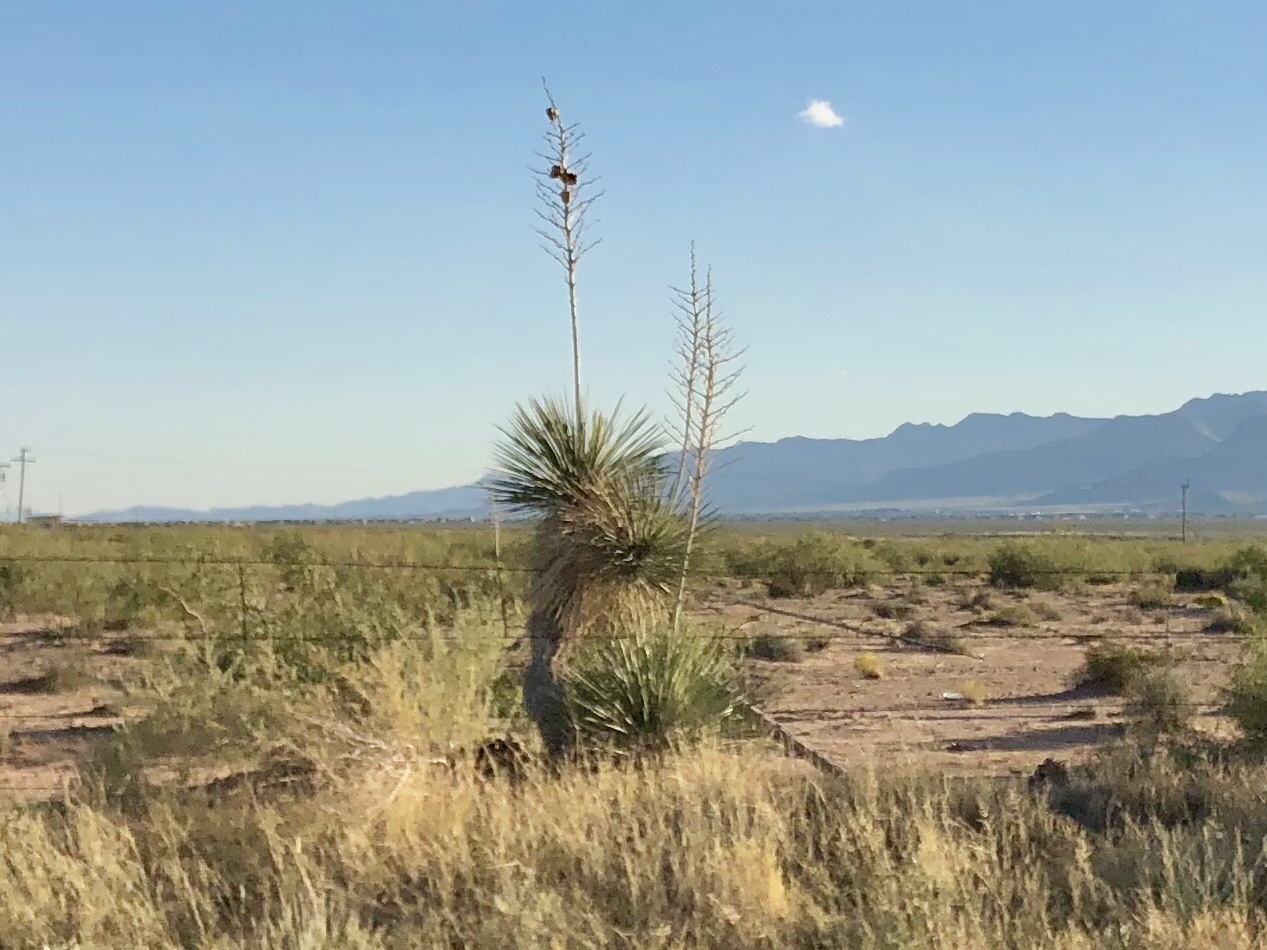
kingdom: Plantae
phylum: Tracheophyta
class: Liliopsida
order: Asparagales
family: Asparagaceae
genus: Yucca
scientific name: Yucca elata
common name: Palmella
